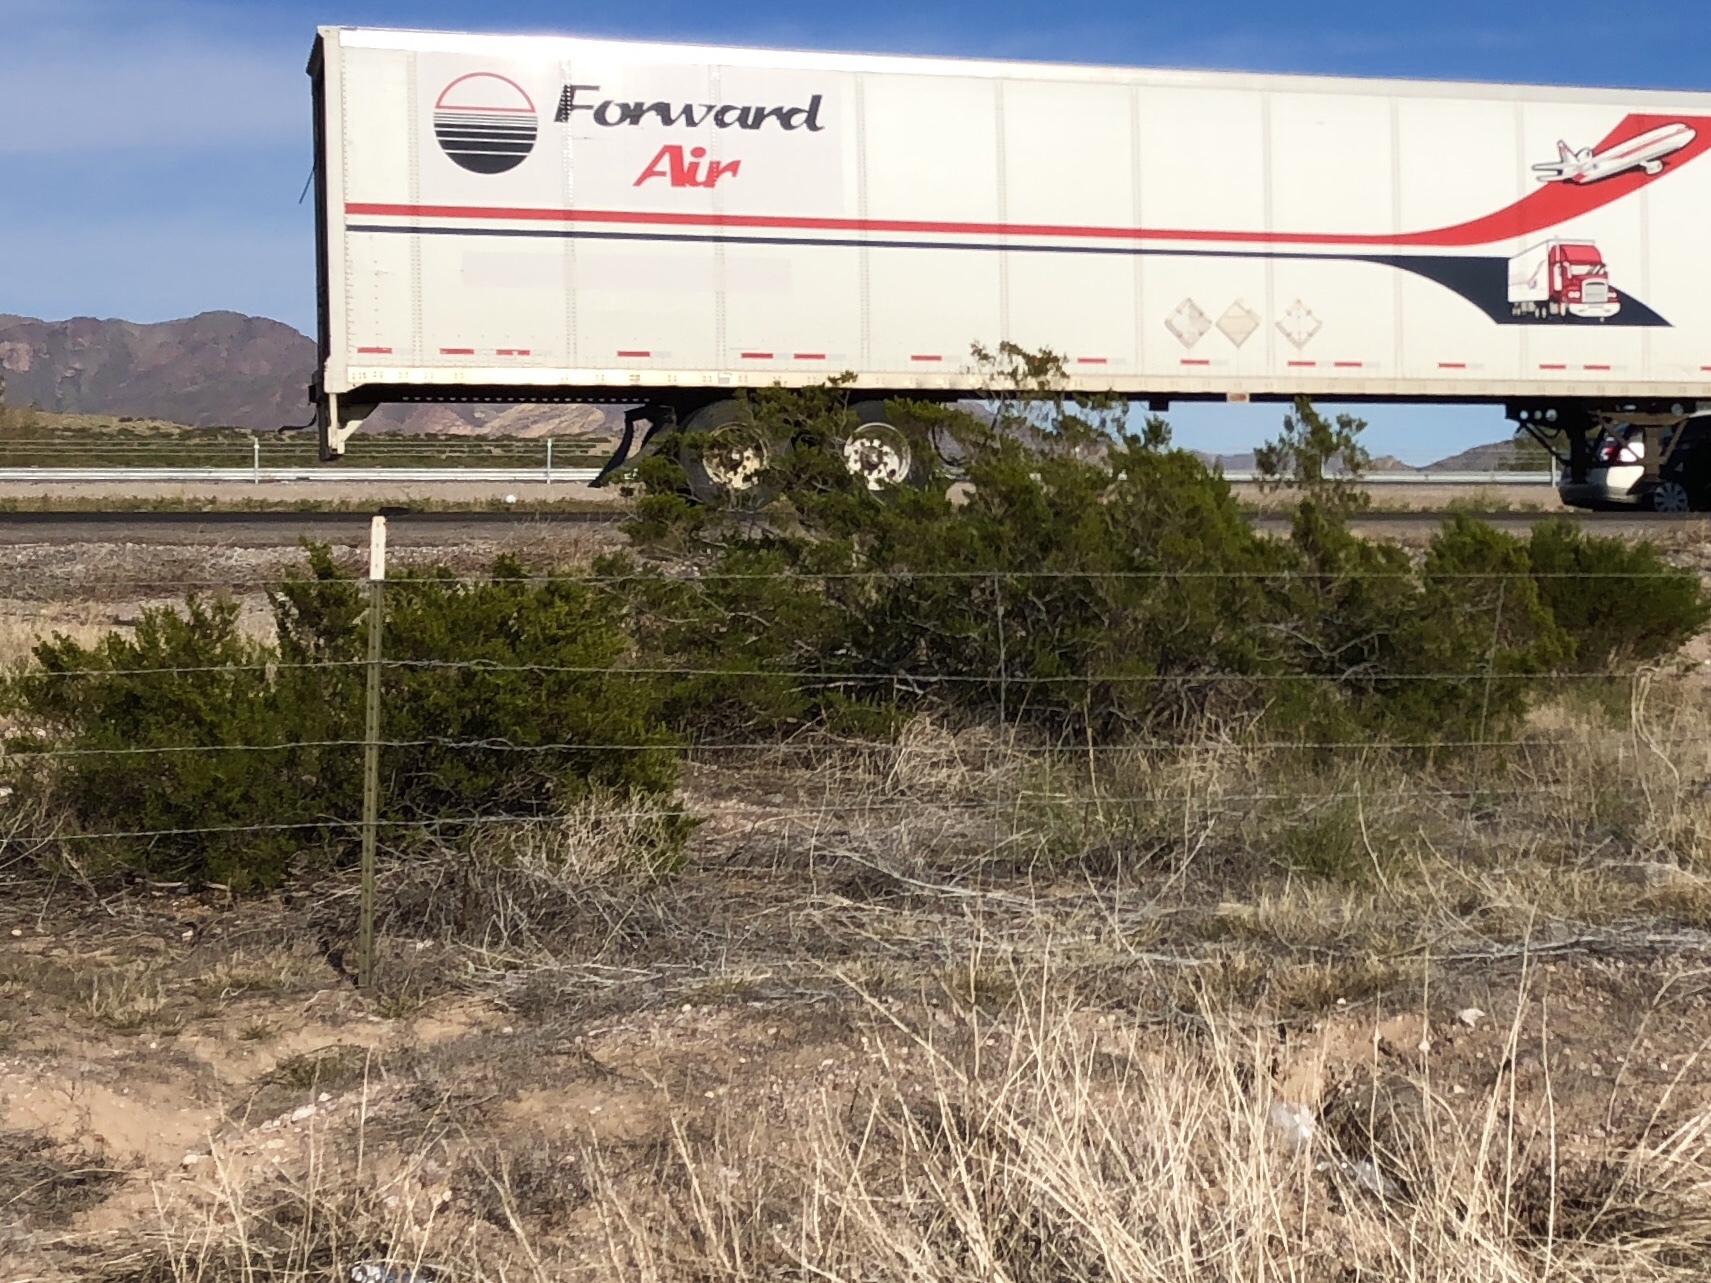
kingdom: Plantae
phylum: Tracheophyta
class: Magnoliopsida
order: Zygophyllales
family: Zygophyllaceae
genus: Larrea
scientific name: Larrea tridentata
